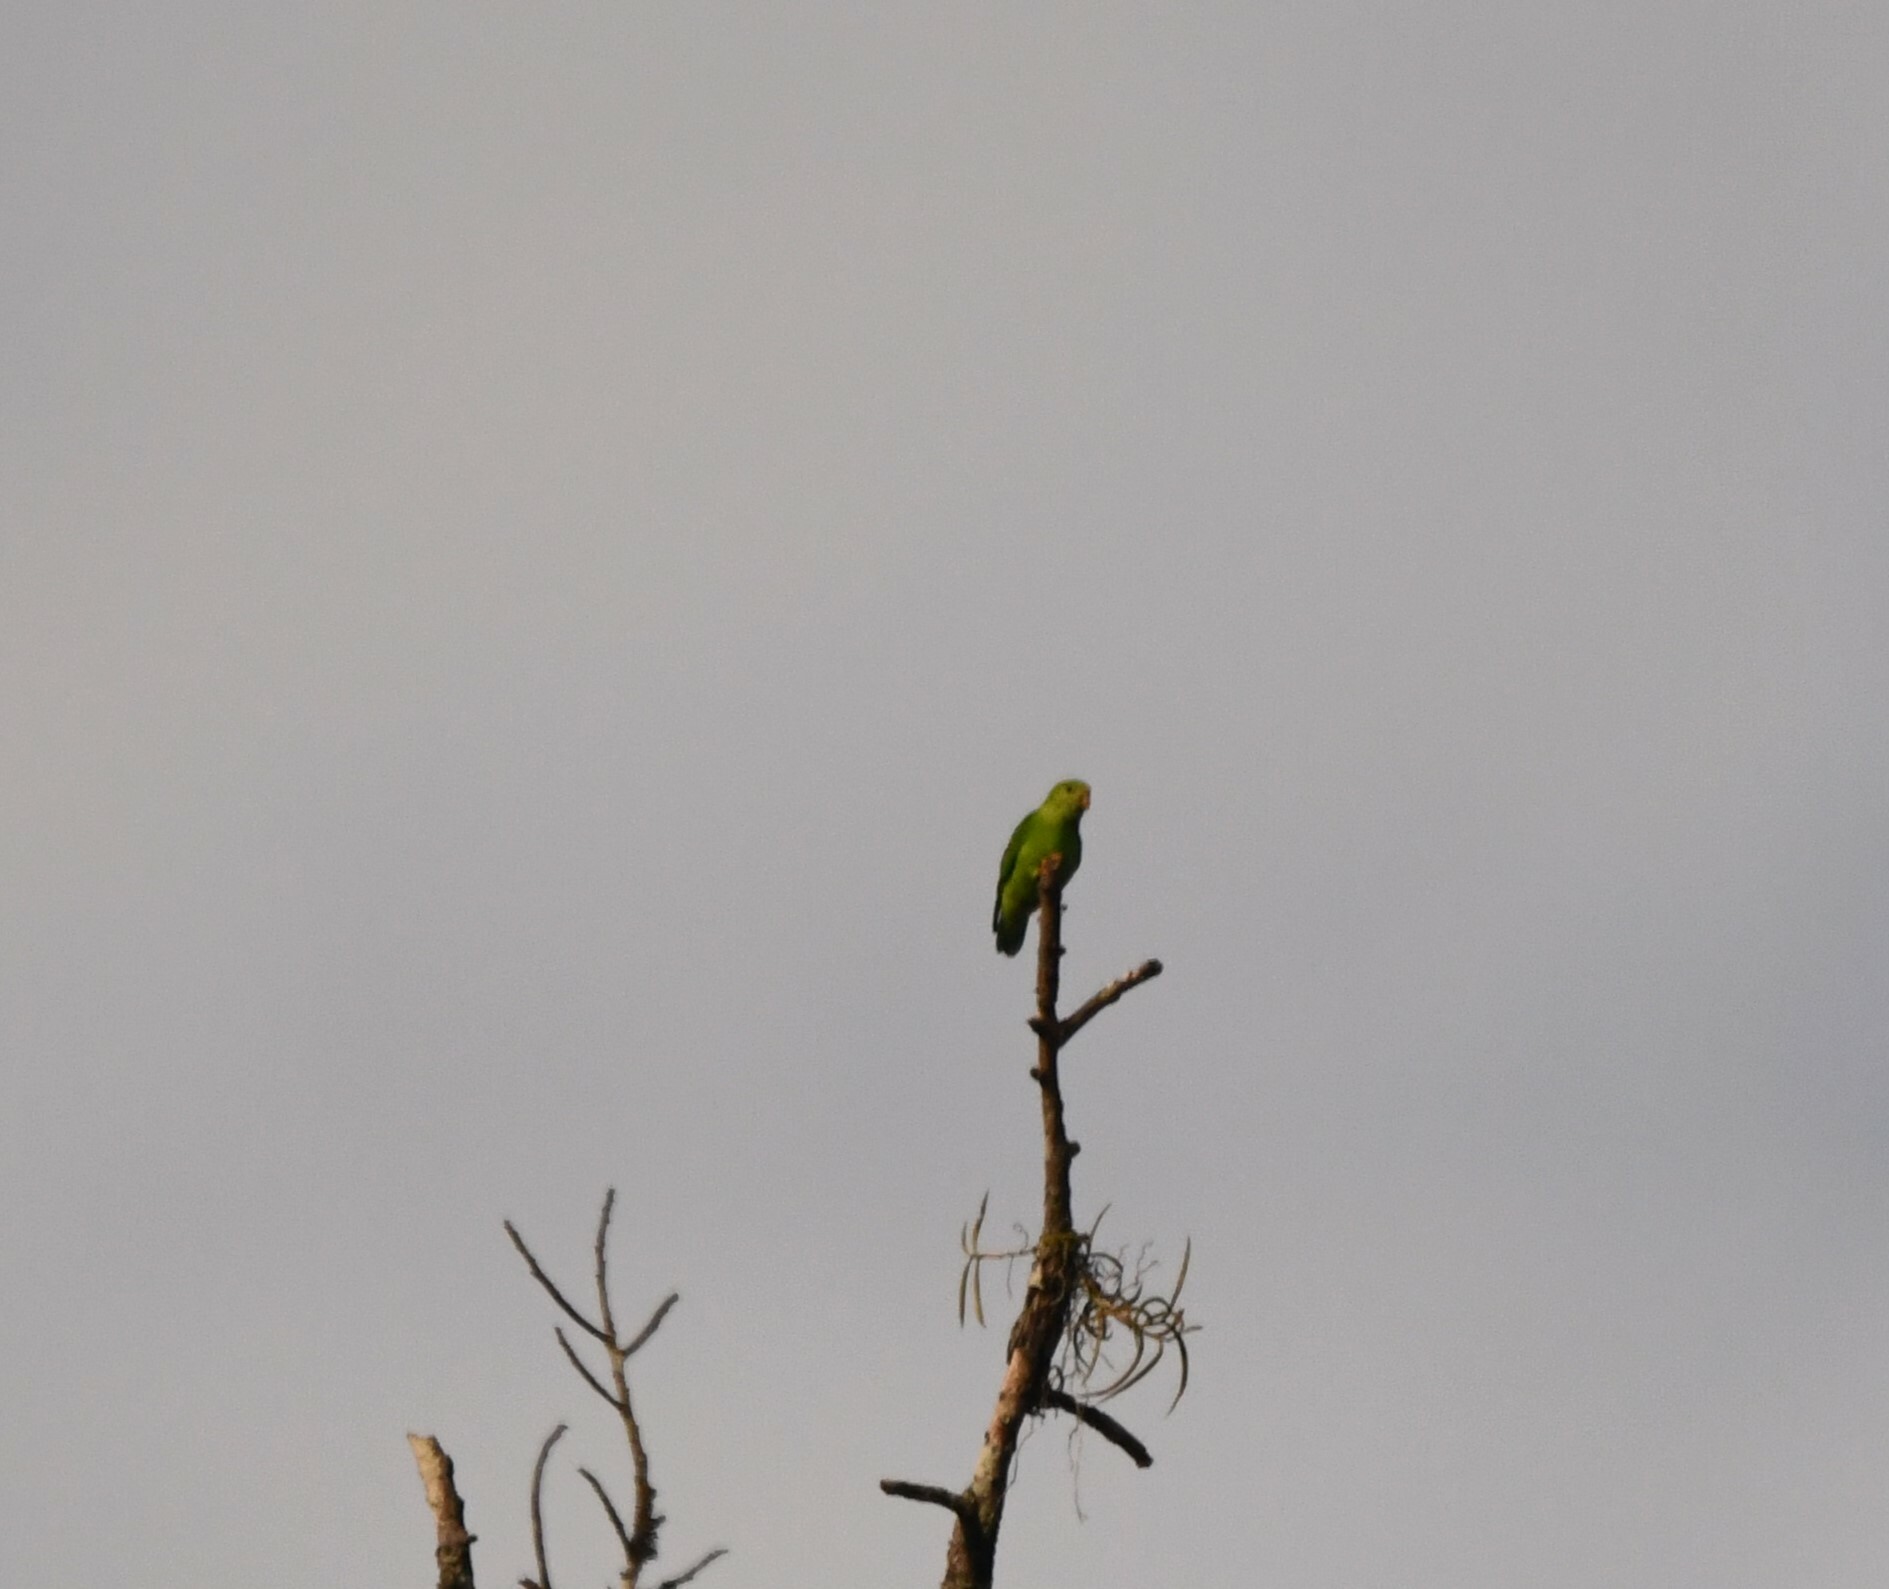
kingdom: Animalia
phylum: Chordata
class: Aves
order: Psittaciformes
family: Psittacidae
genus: Loriculus
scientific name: Loriculus vernalis
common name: Vernal hanging parrot
